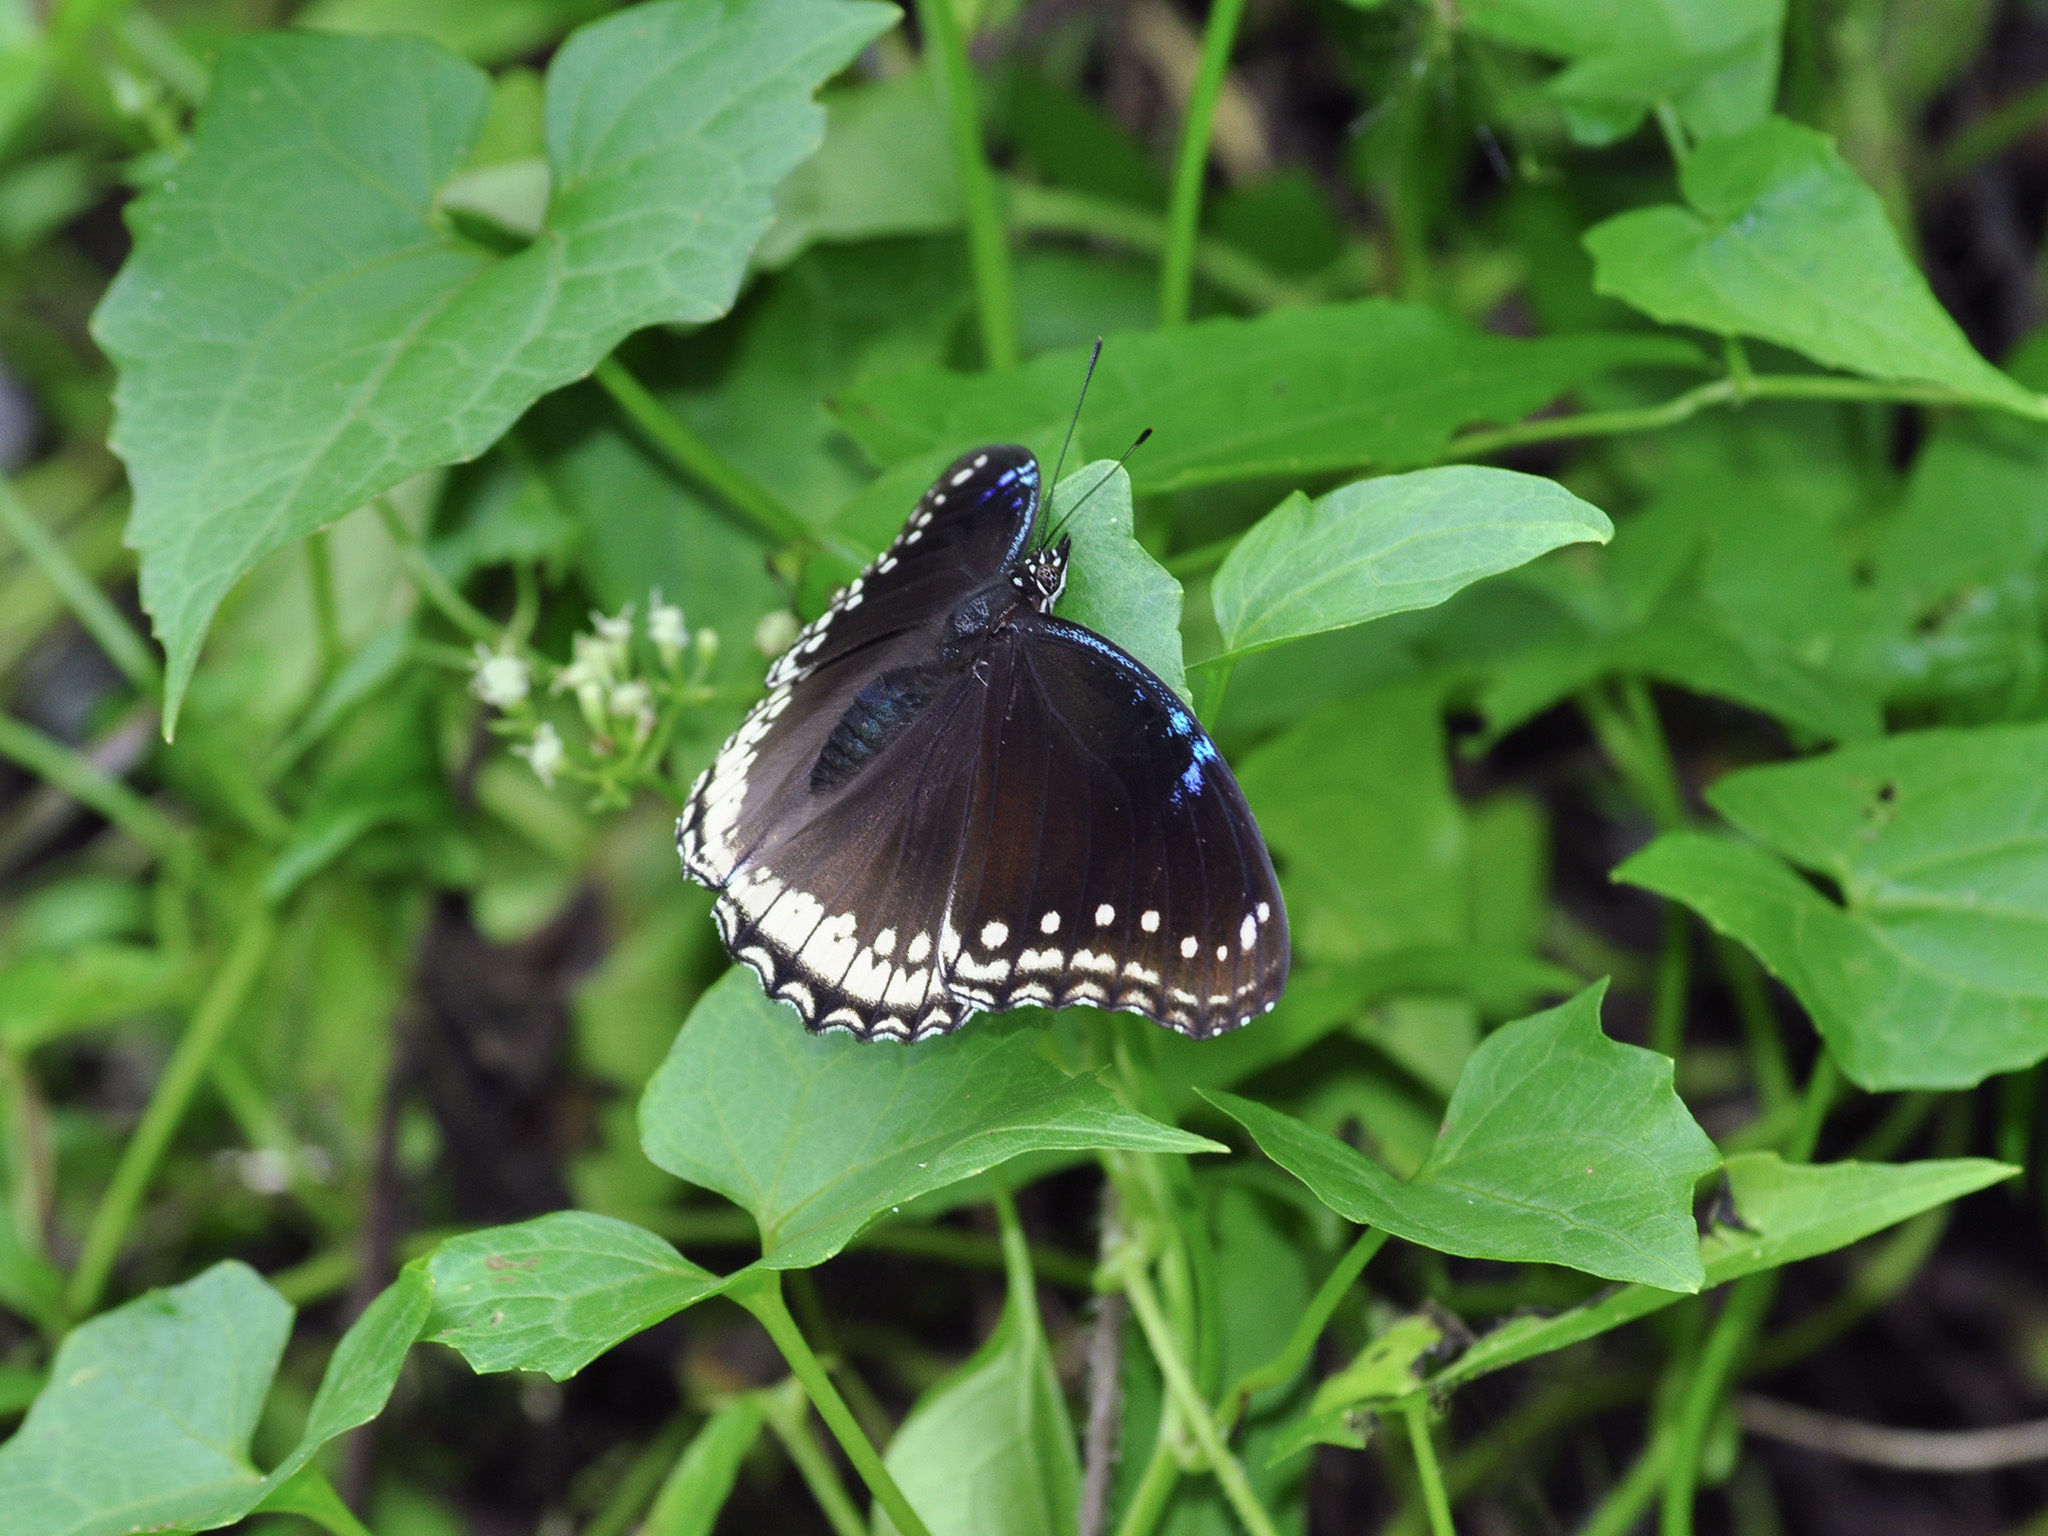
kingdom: Animalia
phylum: Arthropoda
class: Insecta
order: Lepidoptera
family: Nymphalidae
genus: Hypolimnas
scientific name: Hypolimnas bolina
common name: Great eggfly
